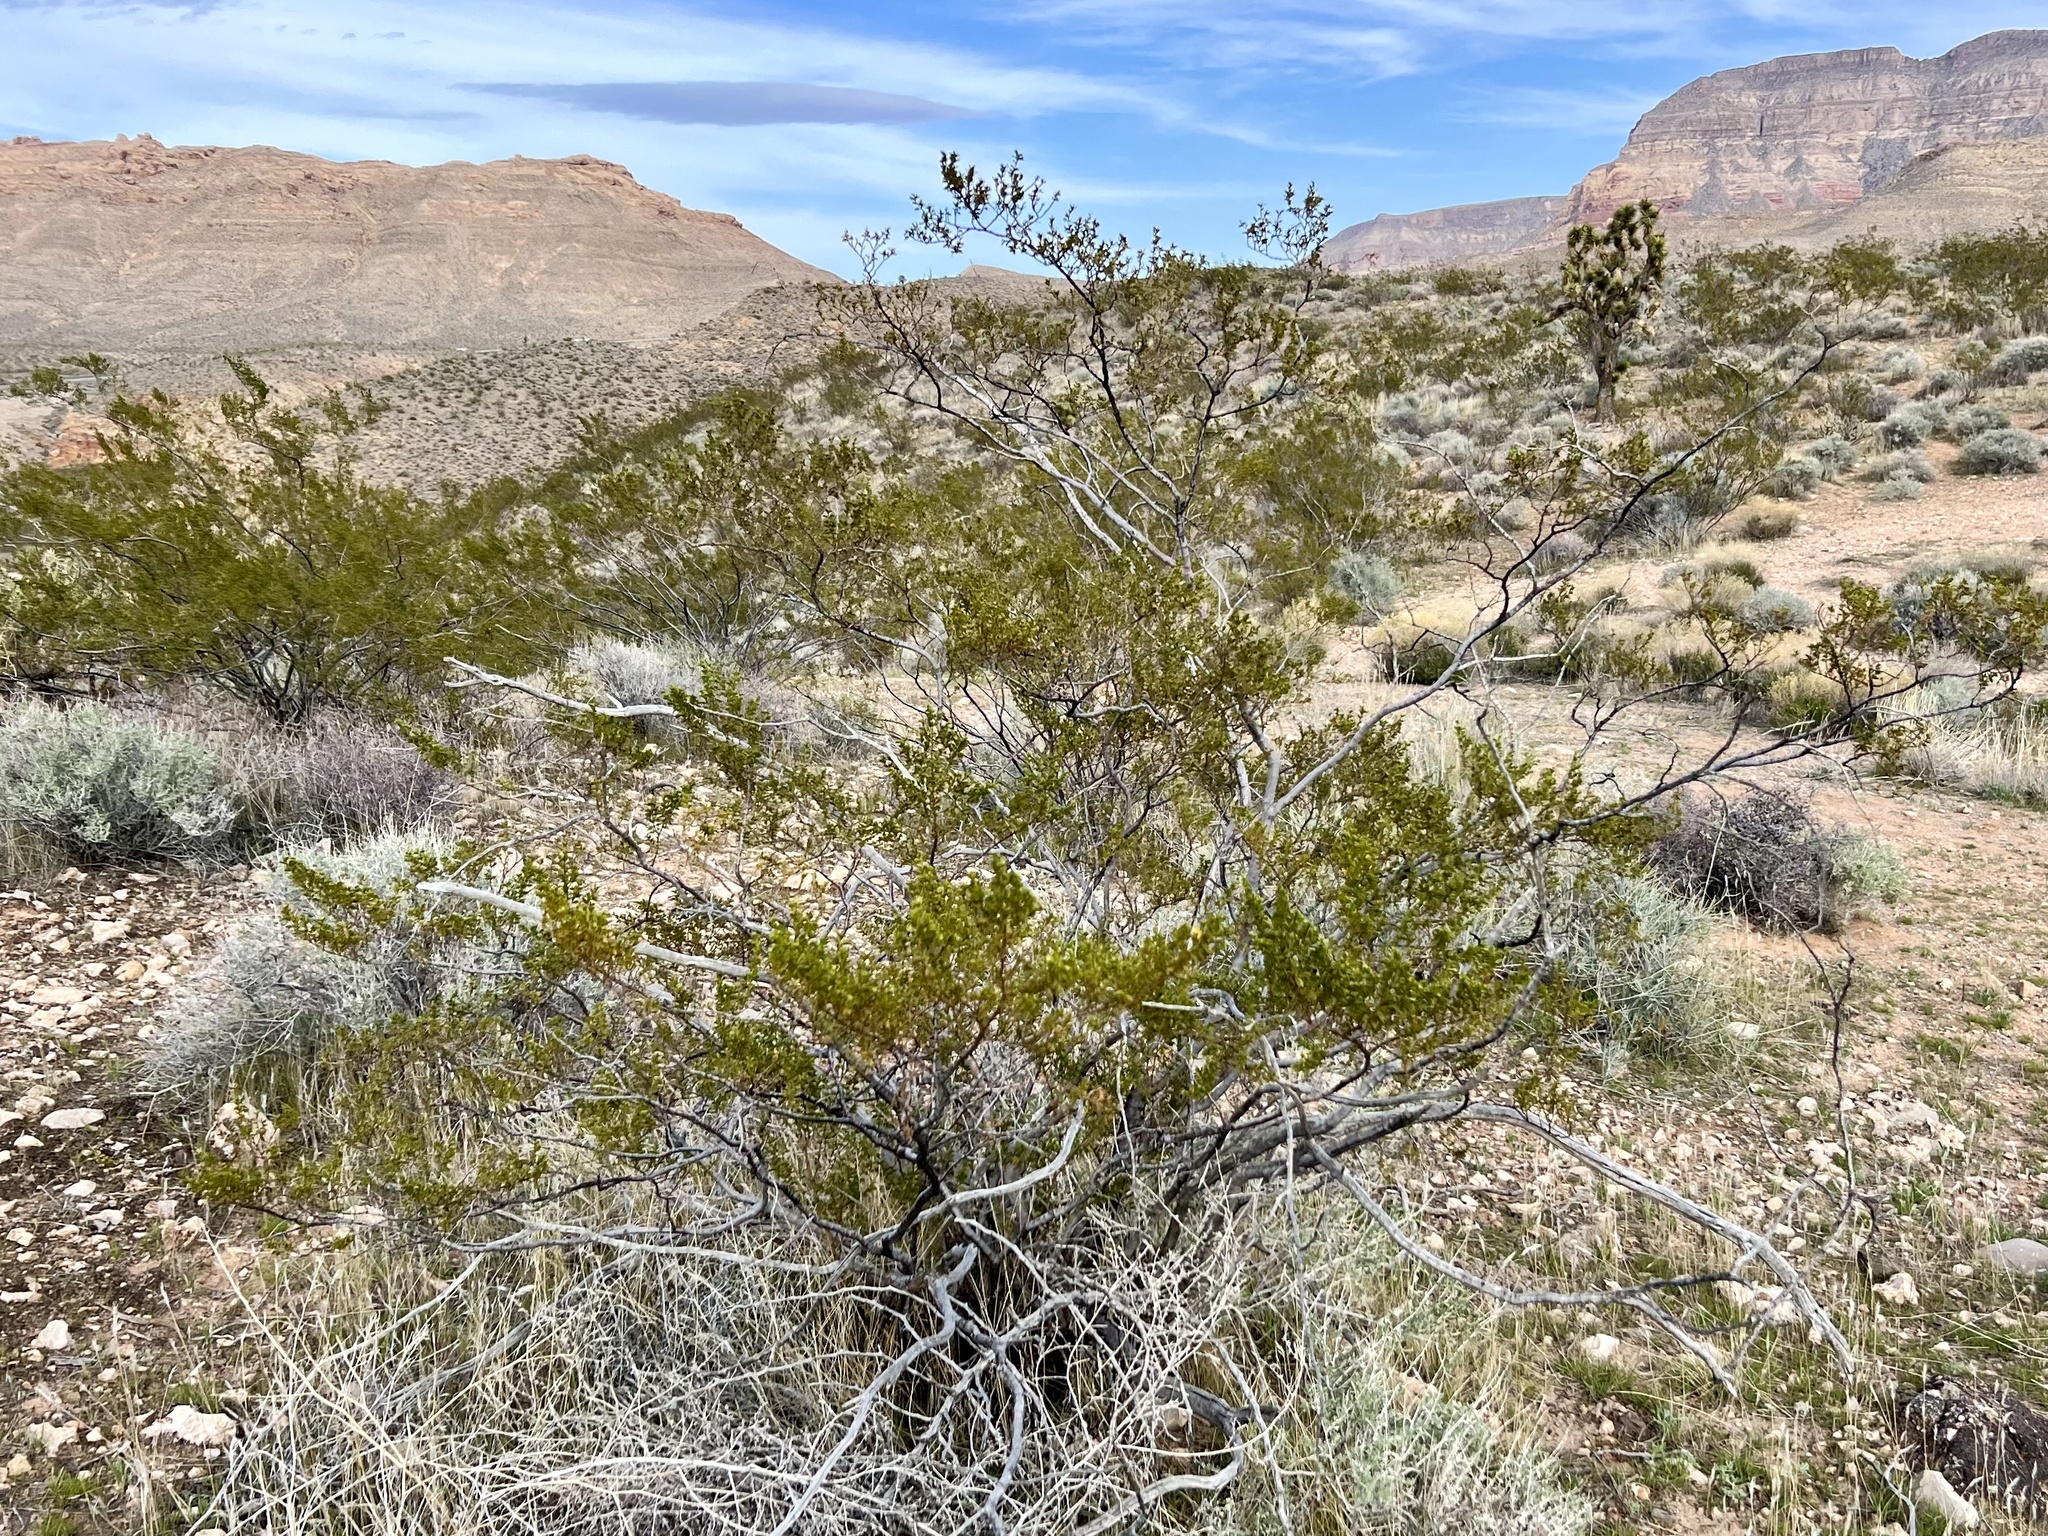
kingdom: Plantae
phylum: Tracheophyta
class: Magnoliopsida
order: Zygophyllales
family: Zygophyllaceae
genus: Larrea
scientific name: Larrea tridentata
